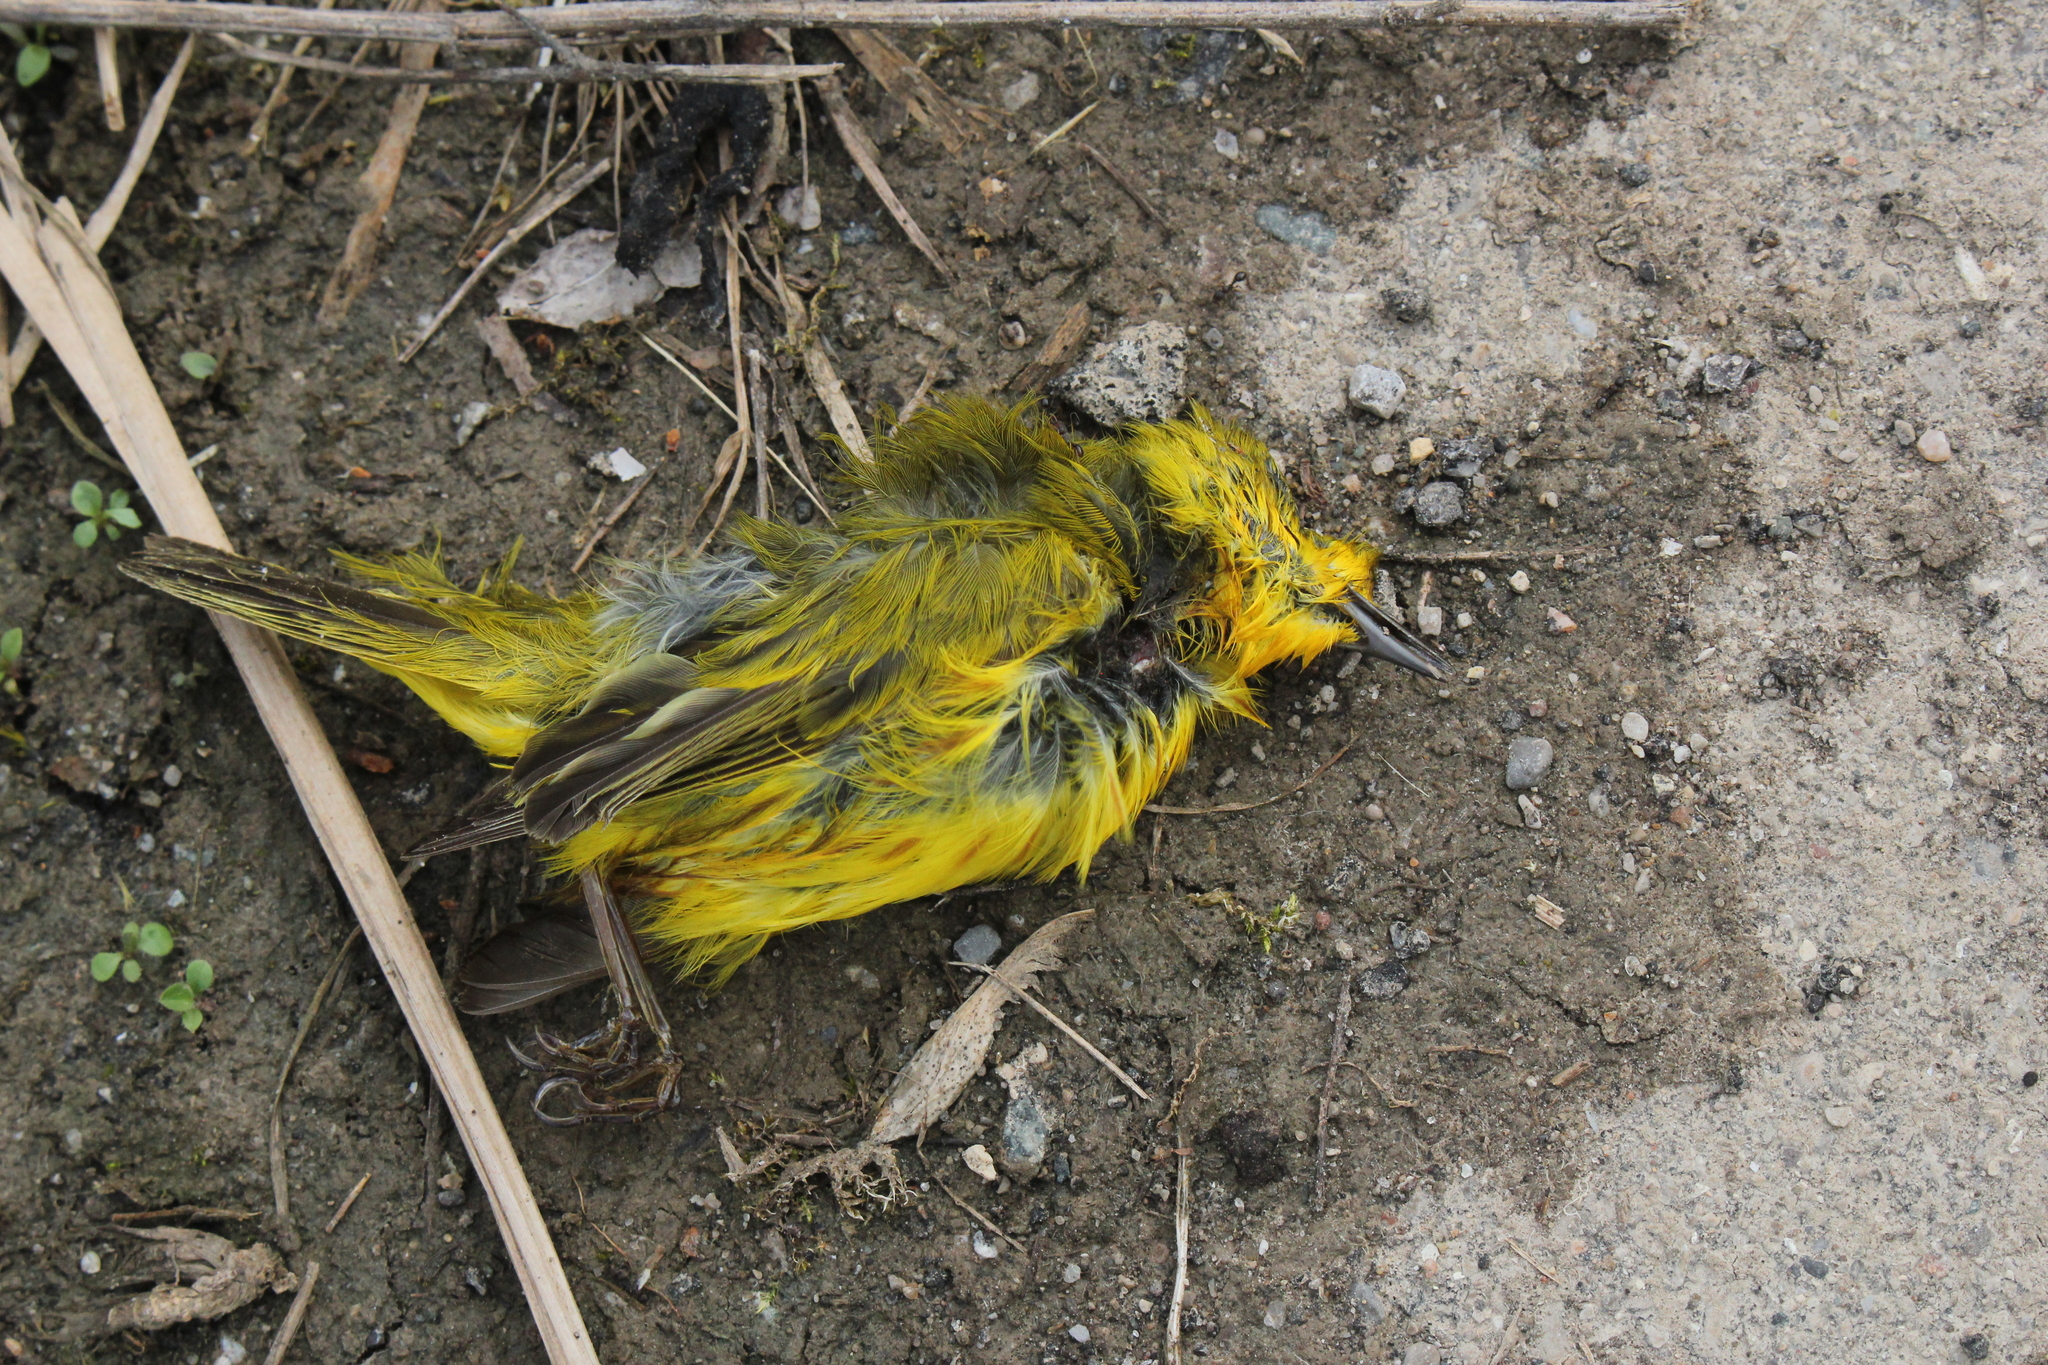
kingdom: Animalia
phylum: Chordata
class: Aves
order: Passeriformes
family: Parulidae
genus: Setophaga
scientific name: Setophaga petechia
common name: Yellow warbler
